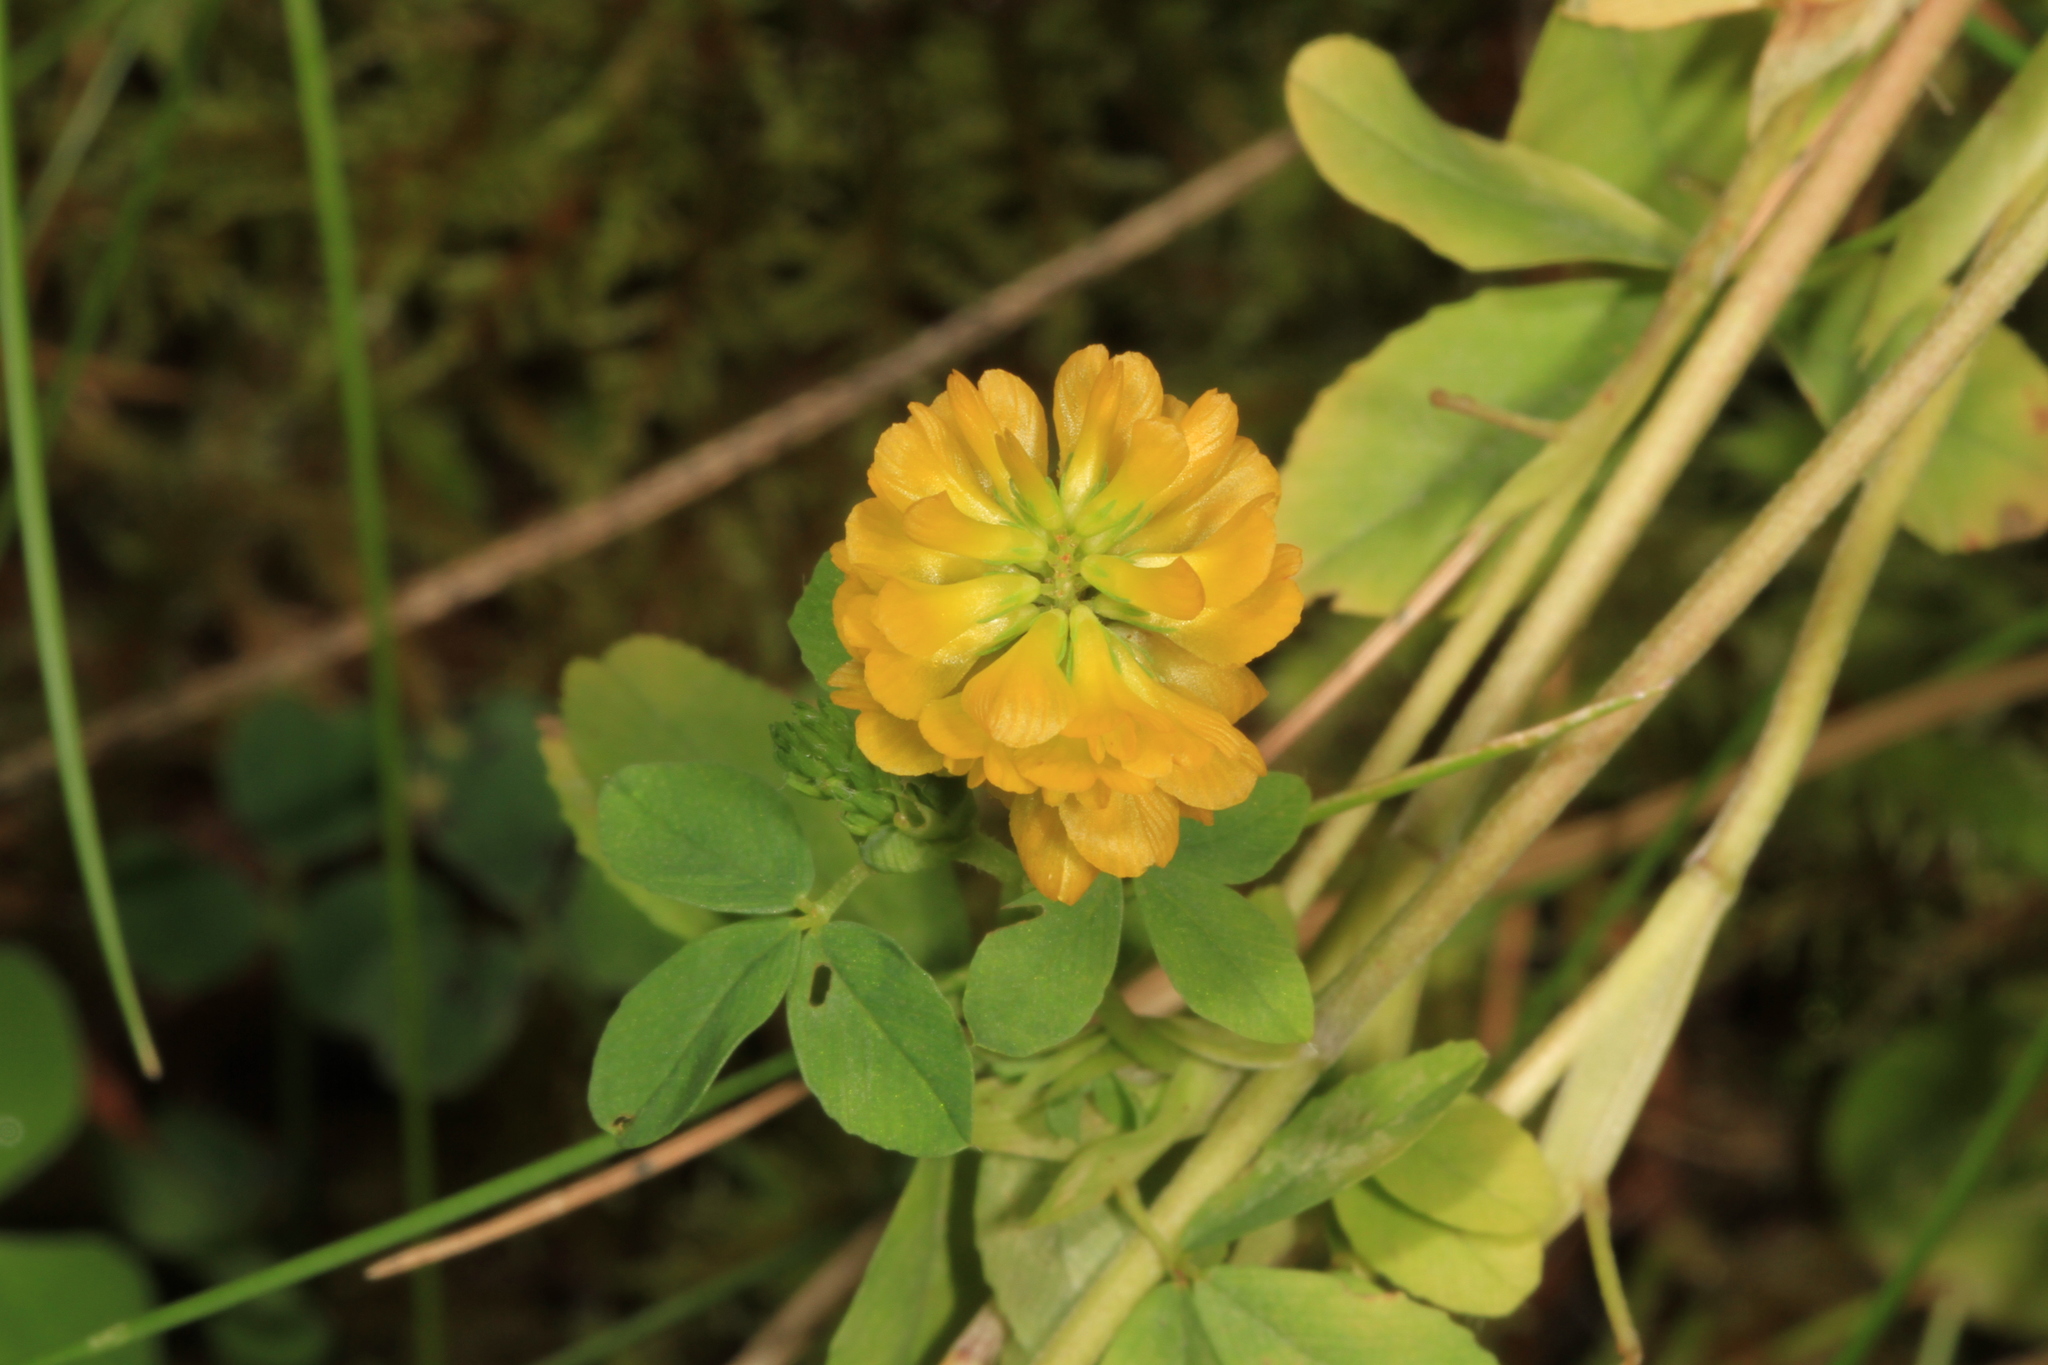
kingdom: Plantae
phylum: Tracheophyta
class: Magnoliopsida
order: Fabales
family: Fabaceae
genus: Trifolium
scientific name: Trifolium aureum
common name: Golden clover
